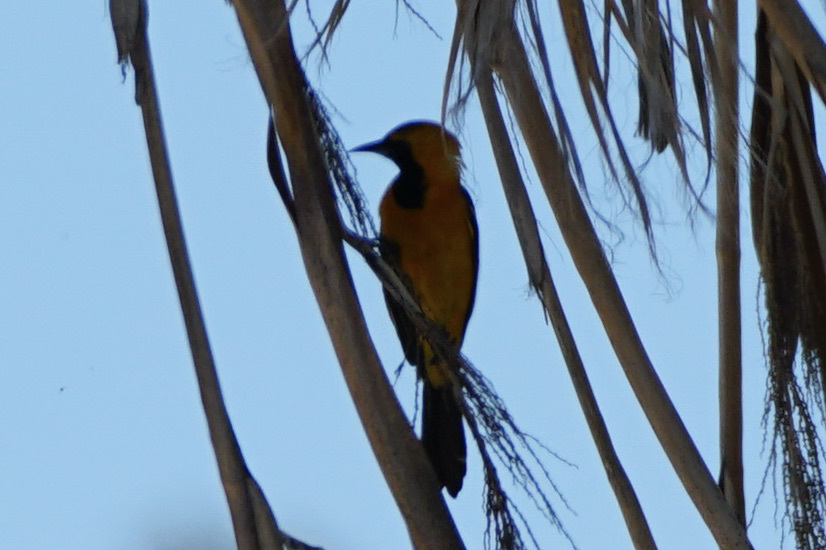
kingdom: Animalia
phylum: Chordata
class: Aves
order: Passeriformes
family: Icteridae
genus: Icterus
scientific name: Icterus cucullatus
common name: Hooded oriole
